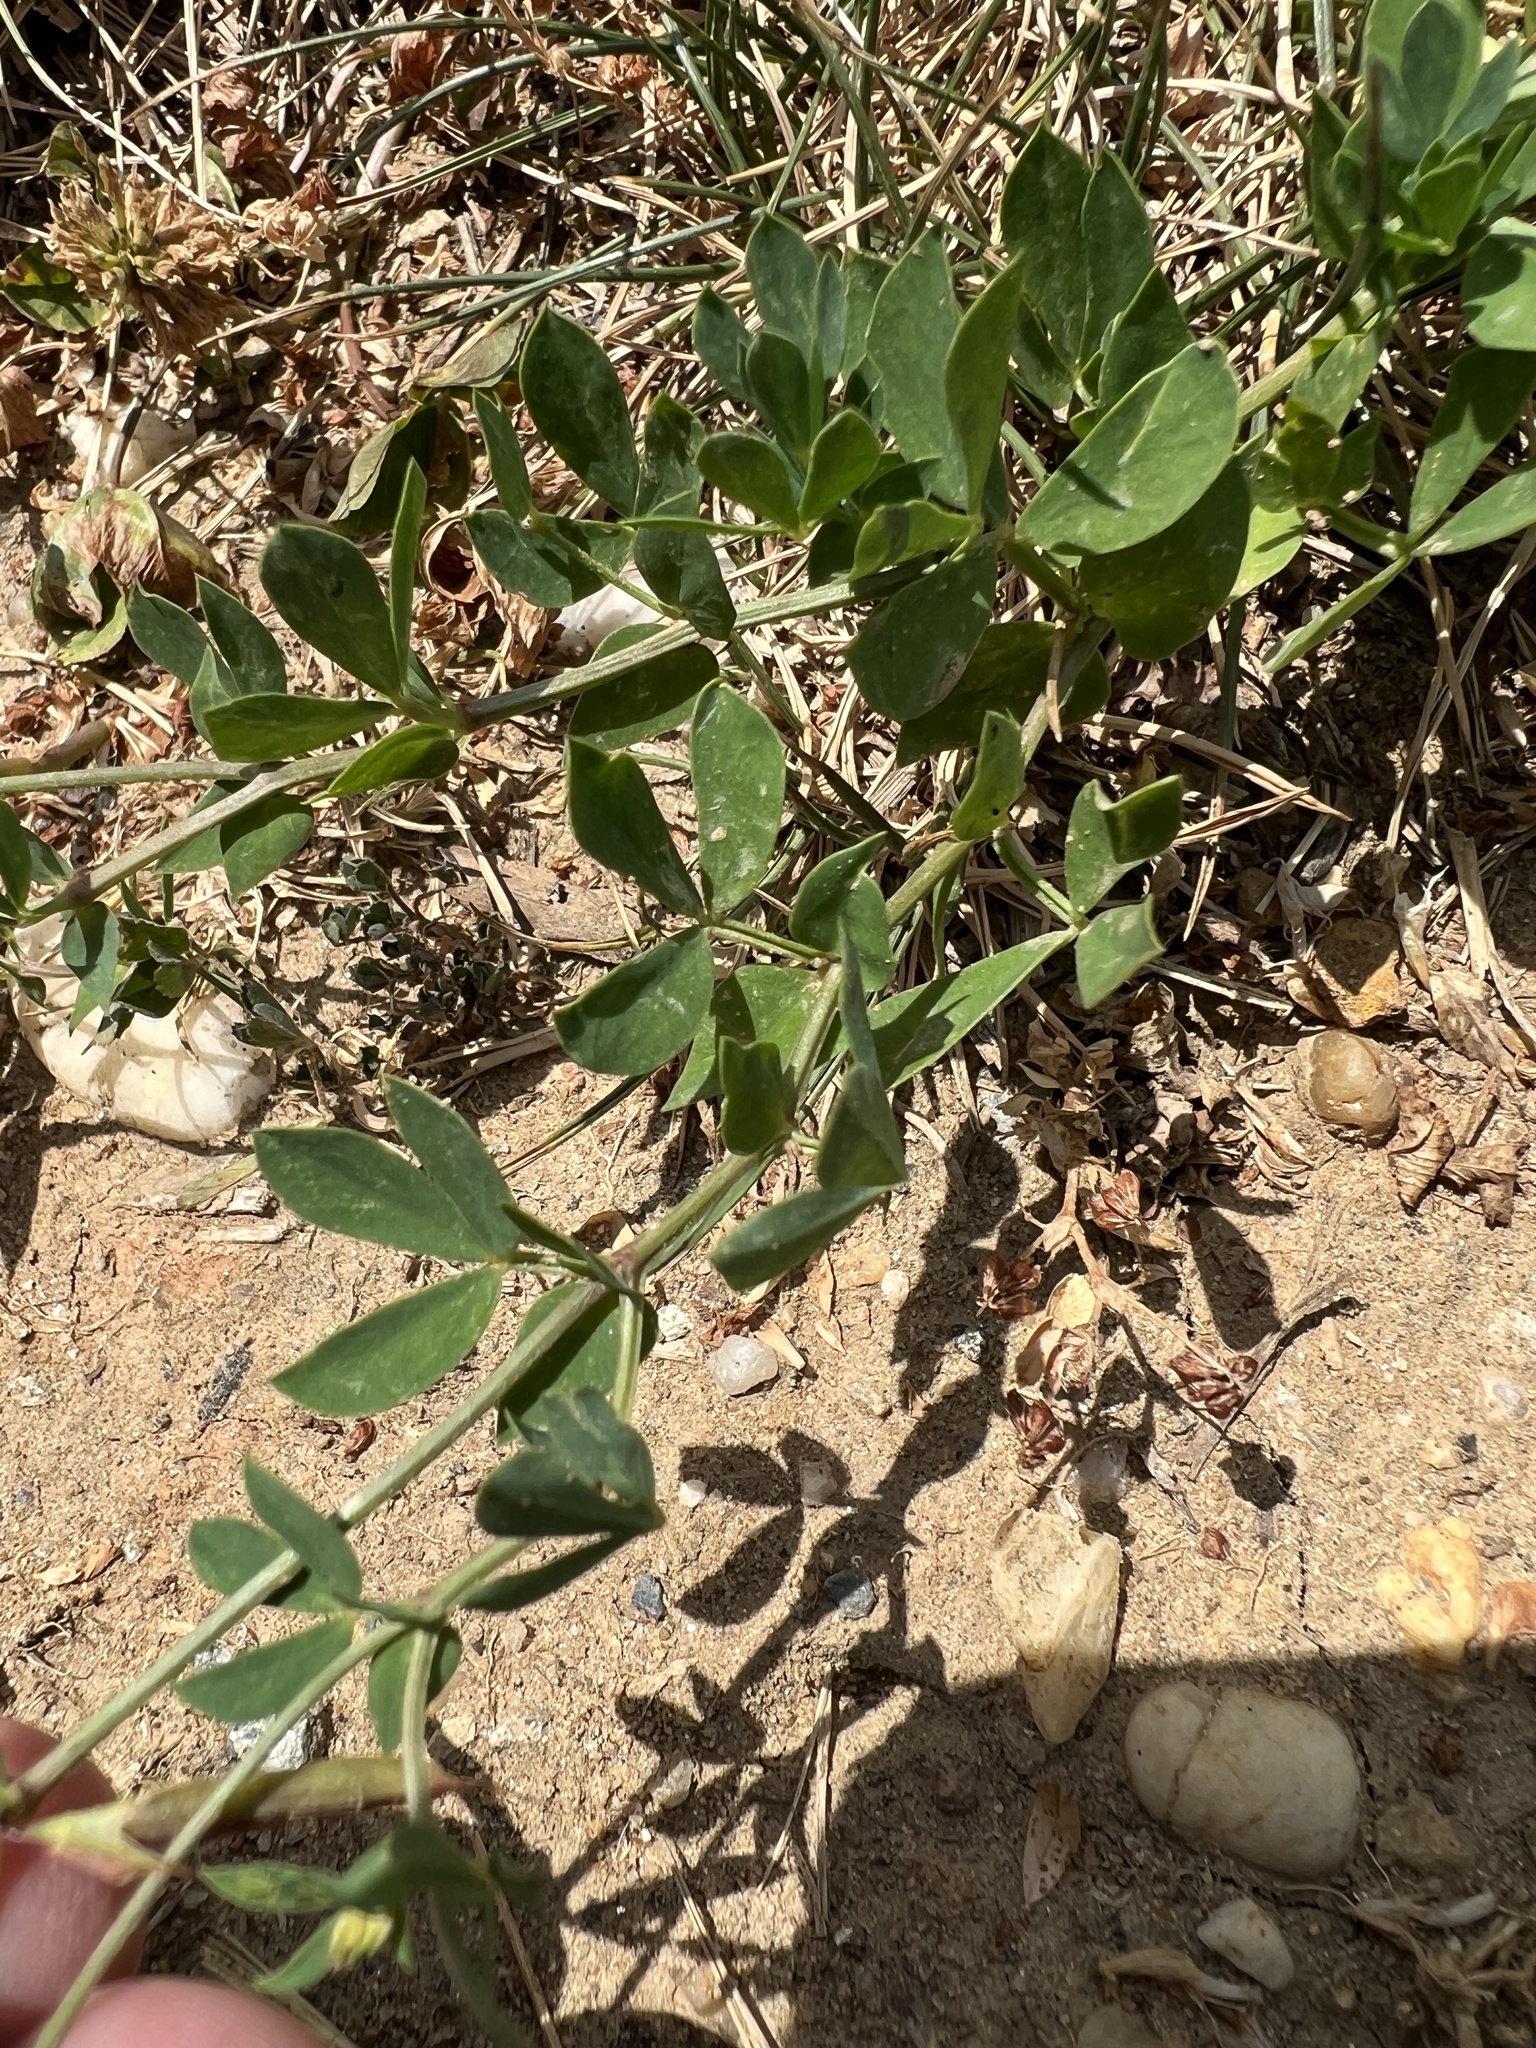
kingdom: Plantae
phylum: Tracheophyta
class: Magnoliopsida
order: Fabales
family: Fabaceae
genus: Lotus
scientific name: Lotus corniculatus
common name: Common bird's-foot-trefoil
